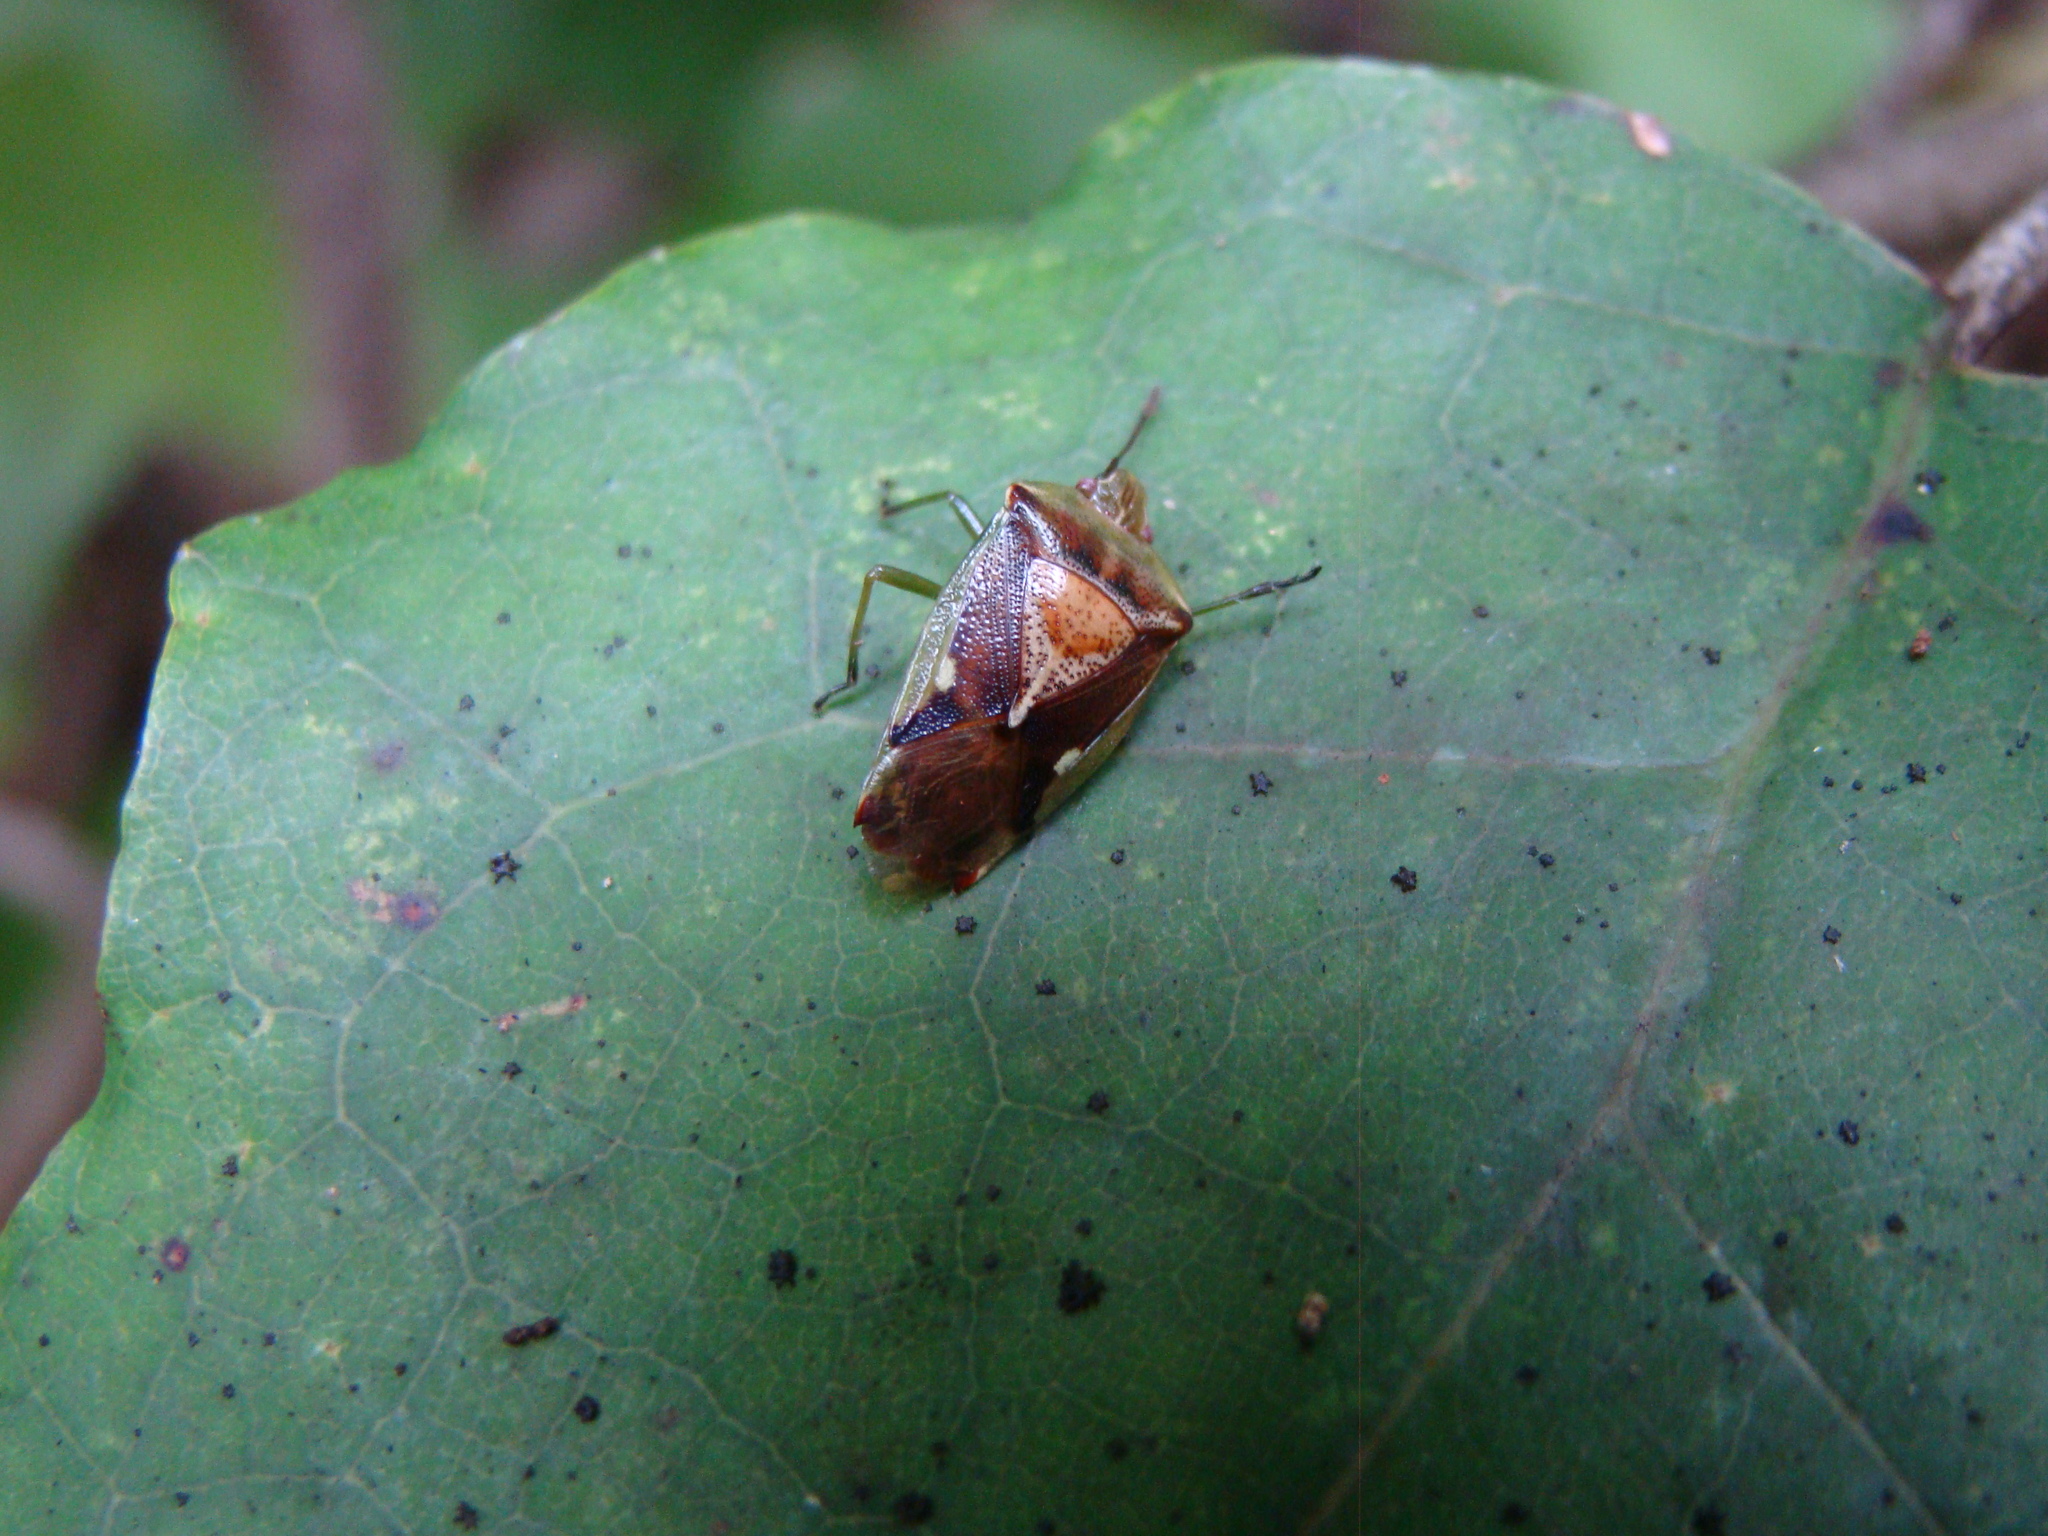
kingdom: Animalia
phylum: Arthropoda
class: Insecta
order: Hemiptera
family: Acanthosomatidae
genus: Oncacontias
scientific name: Oncacontias vittatus
